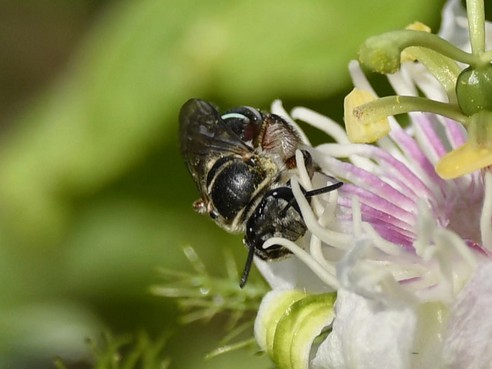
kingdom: Animalia
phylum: Arthropoda
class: Insecta
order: Hymenoptera
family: Halictidae
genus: Nomia
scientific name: Nomia westwoodi
